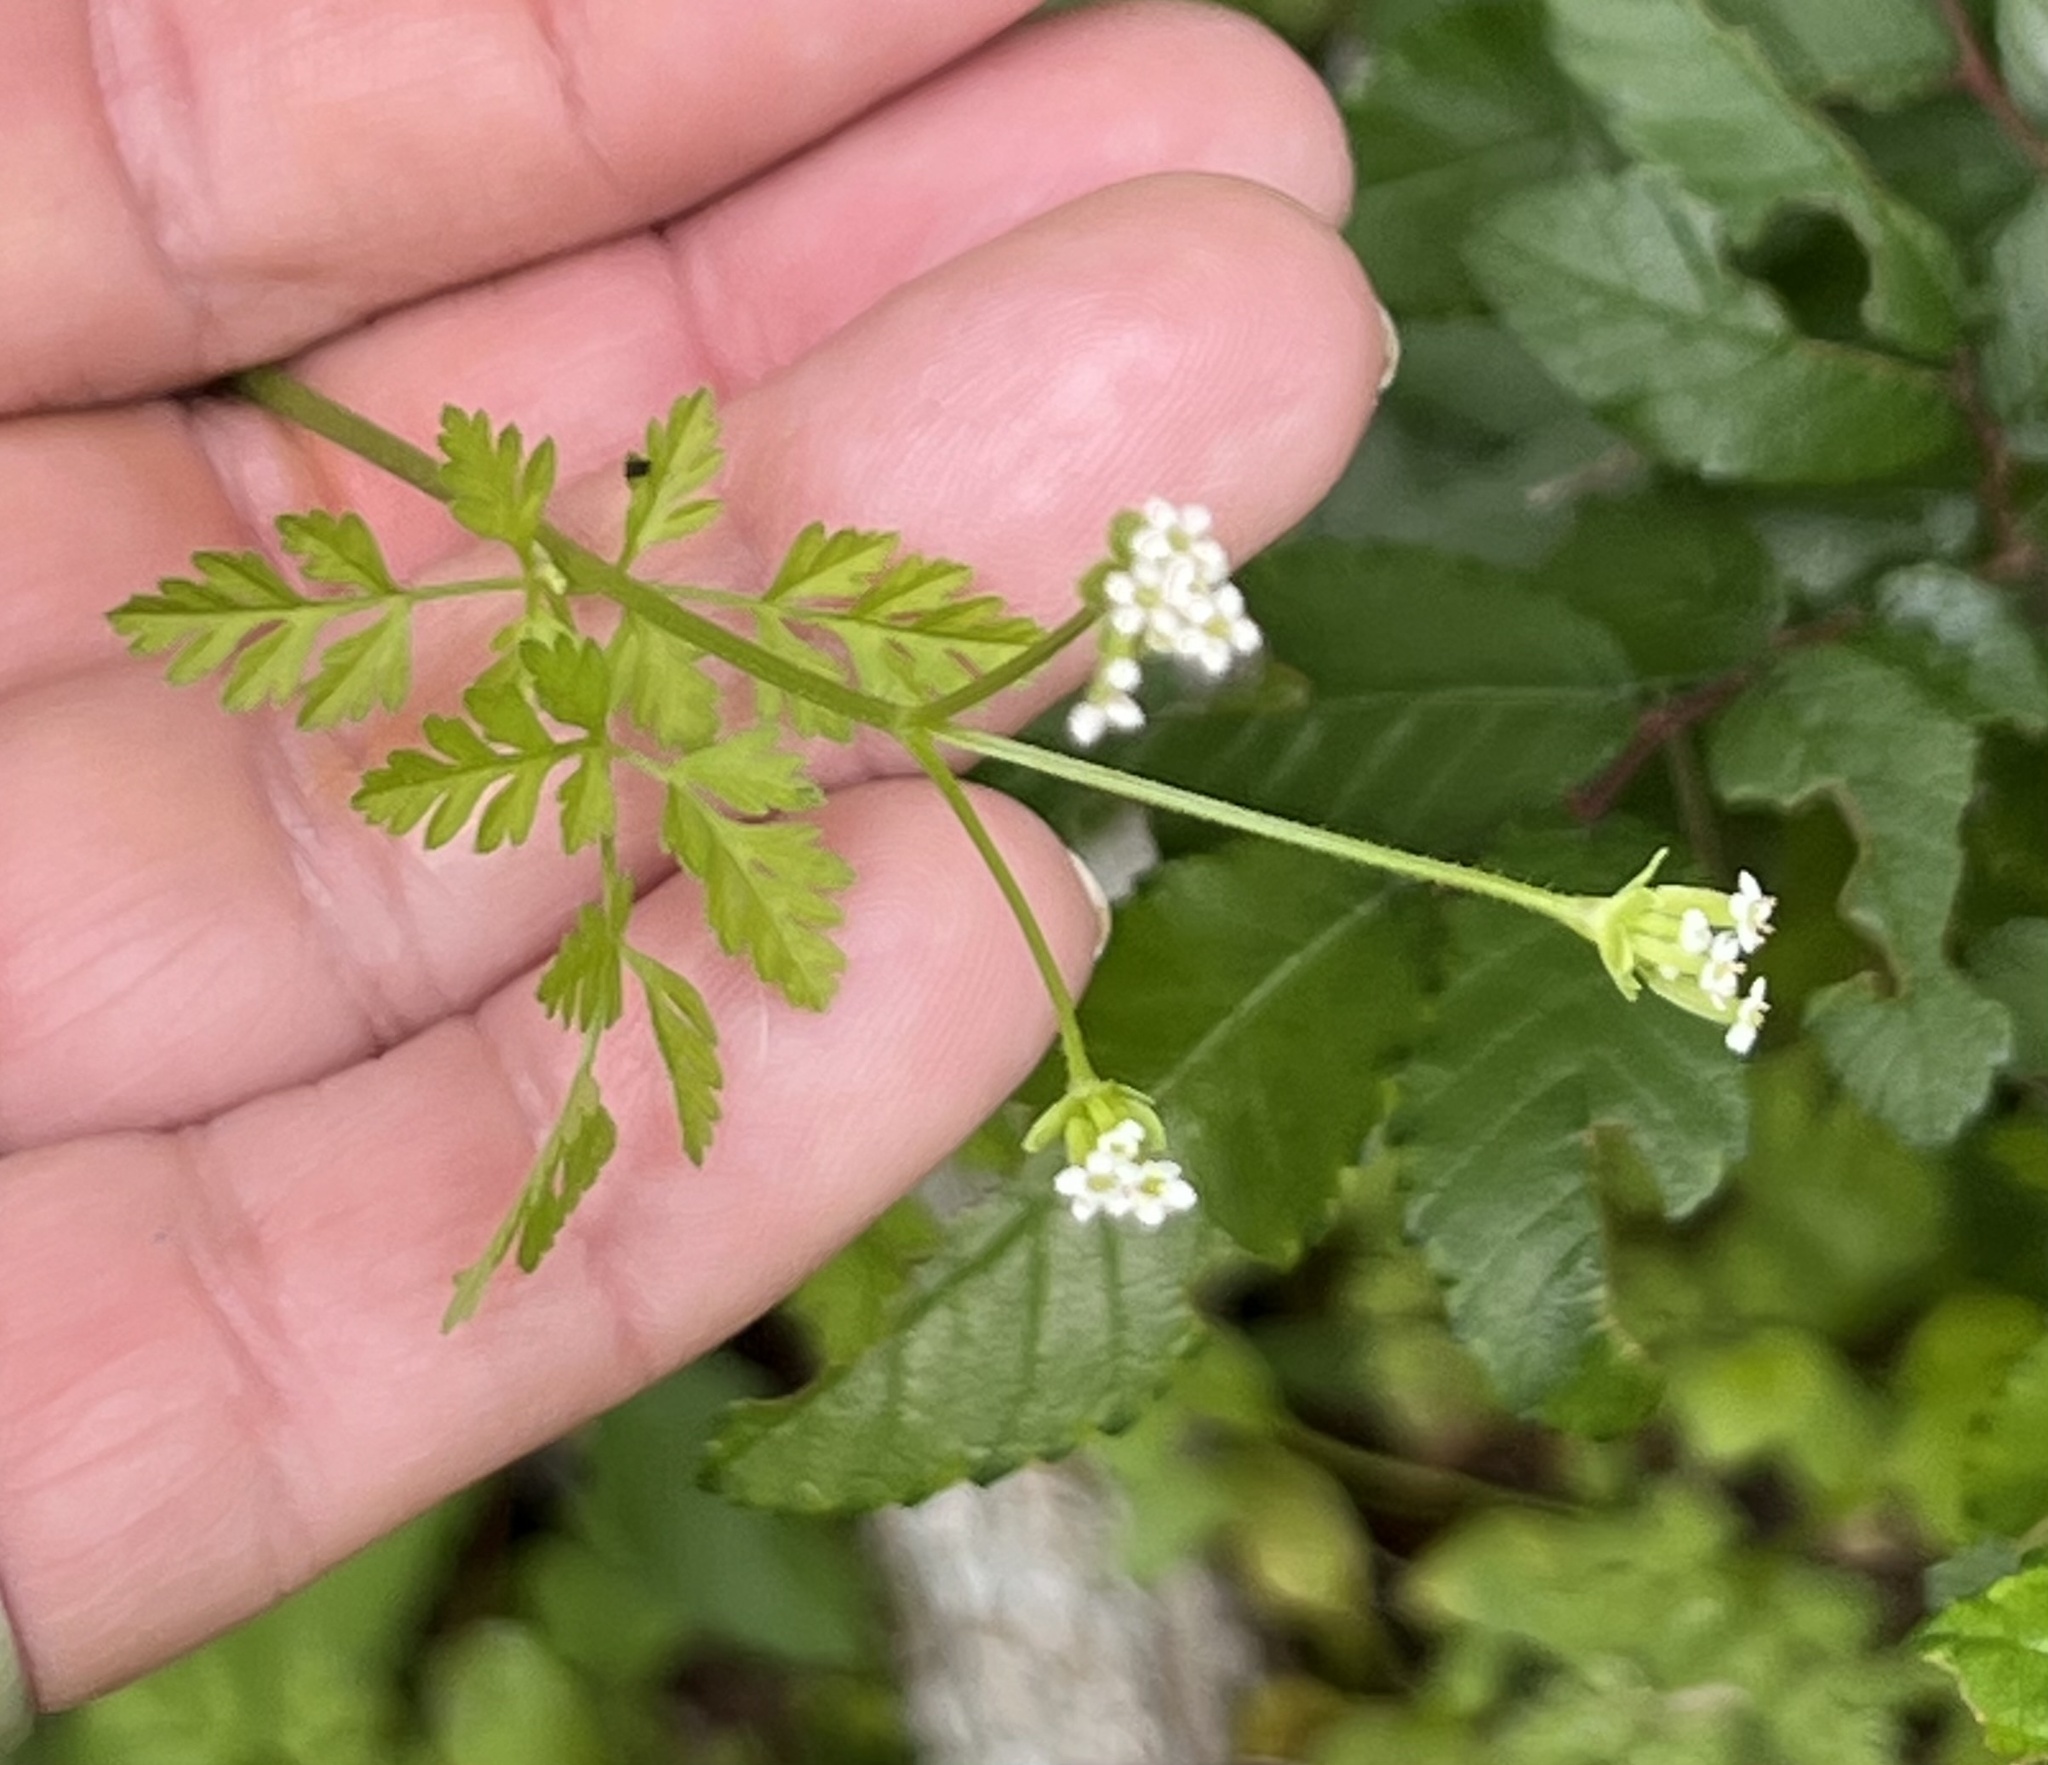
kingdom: Plantae
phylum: Tracheophyta
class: Magnoliopsida
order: Apiales
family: Apiaceae
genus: Chaerophyllum
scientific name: Chaerophyllum tainturieri
